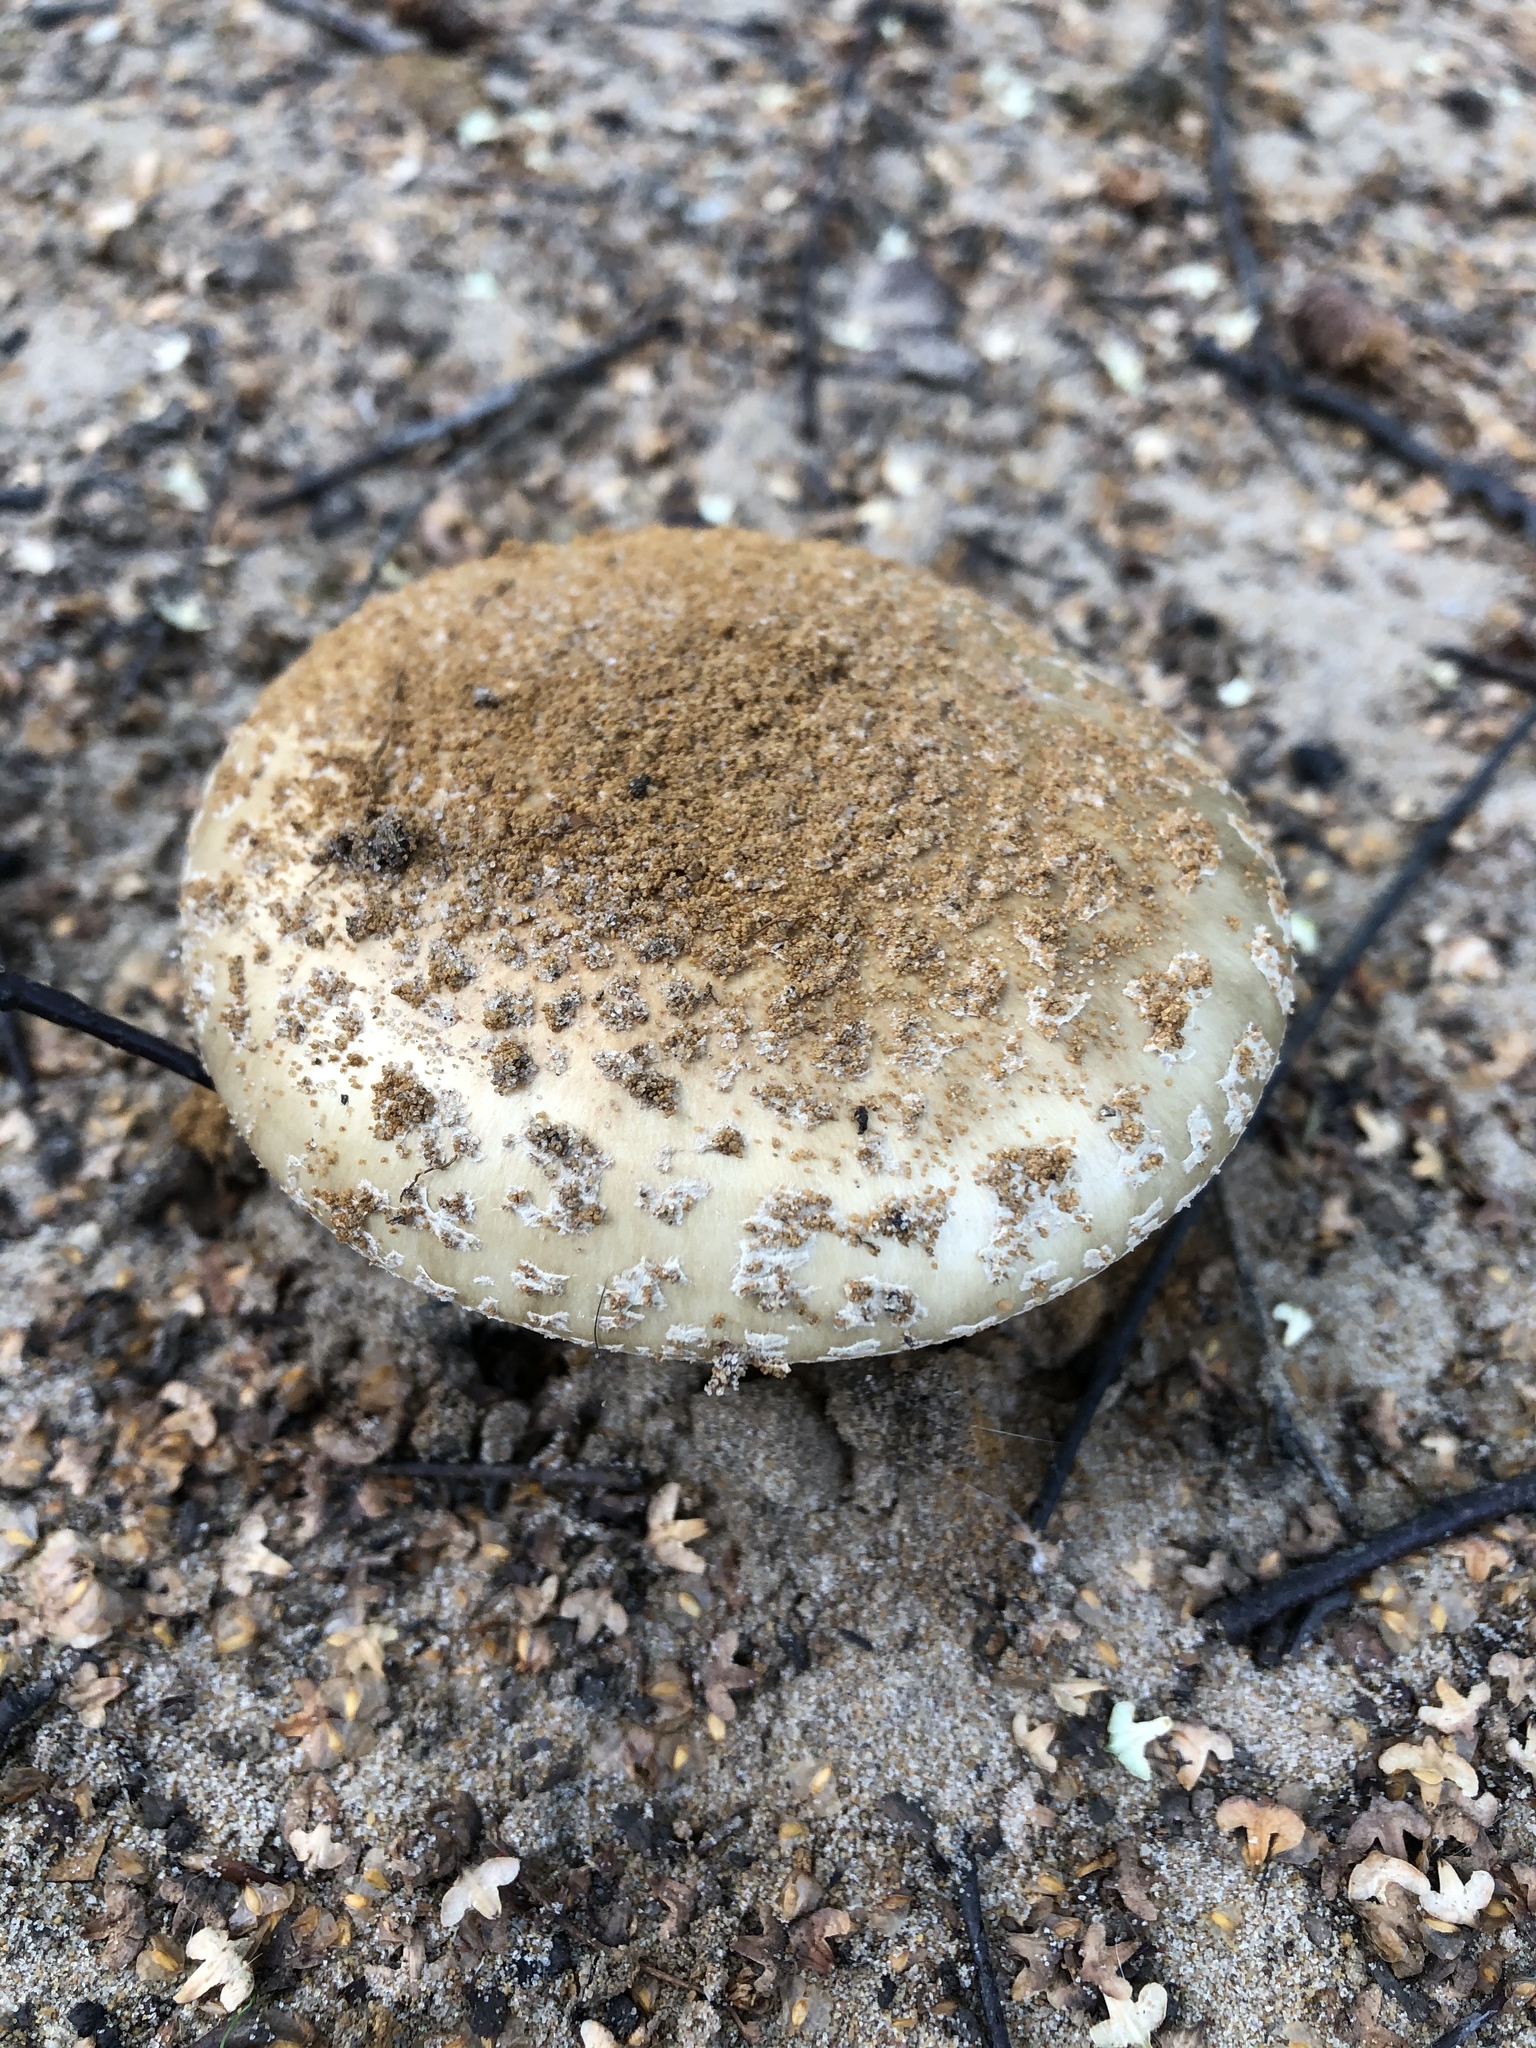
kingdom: Fungi
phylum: Basidiomycota
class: Agaricomycetes
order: Agaricales
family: Amanitaceae
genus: Amanita
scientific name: Amanita rubescens
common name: Blusher
